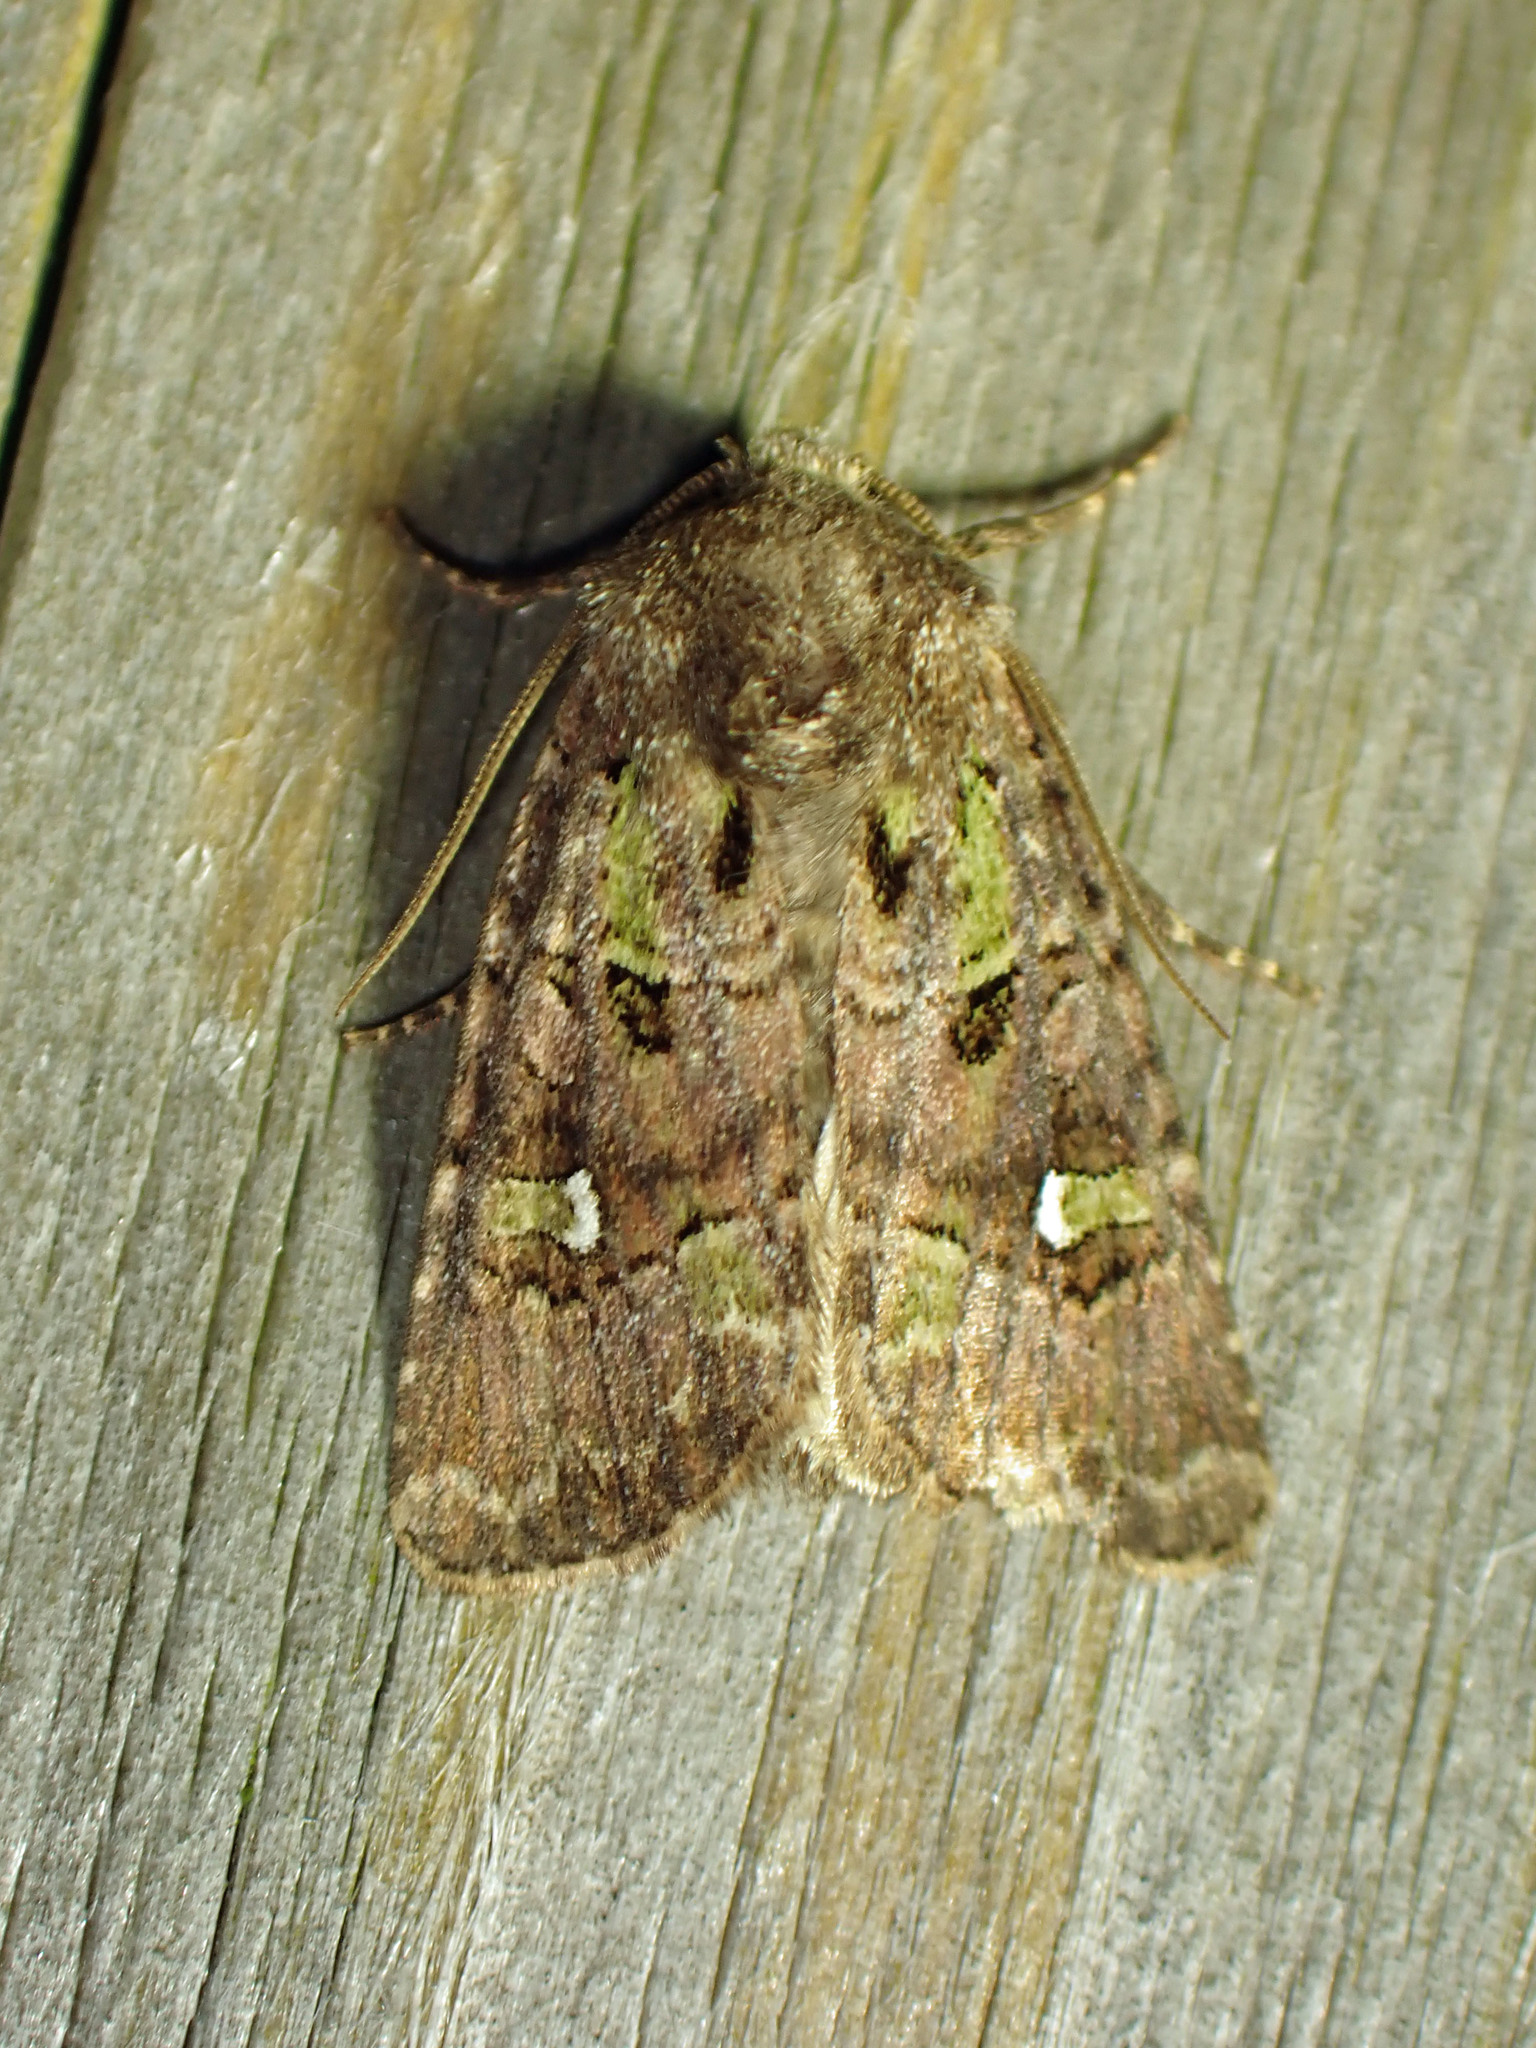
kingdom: Animalia
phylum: Arthropoda
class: Insecta
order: Lepidoptera
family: Noctuidae
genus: Lacinipolia
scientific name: Lacinipolia renigera
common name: Kidney-spotted minor
